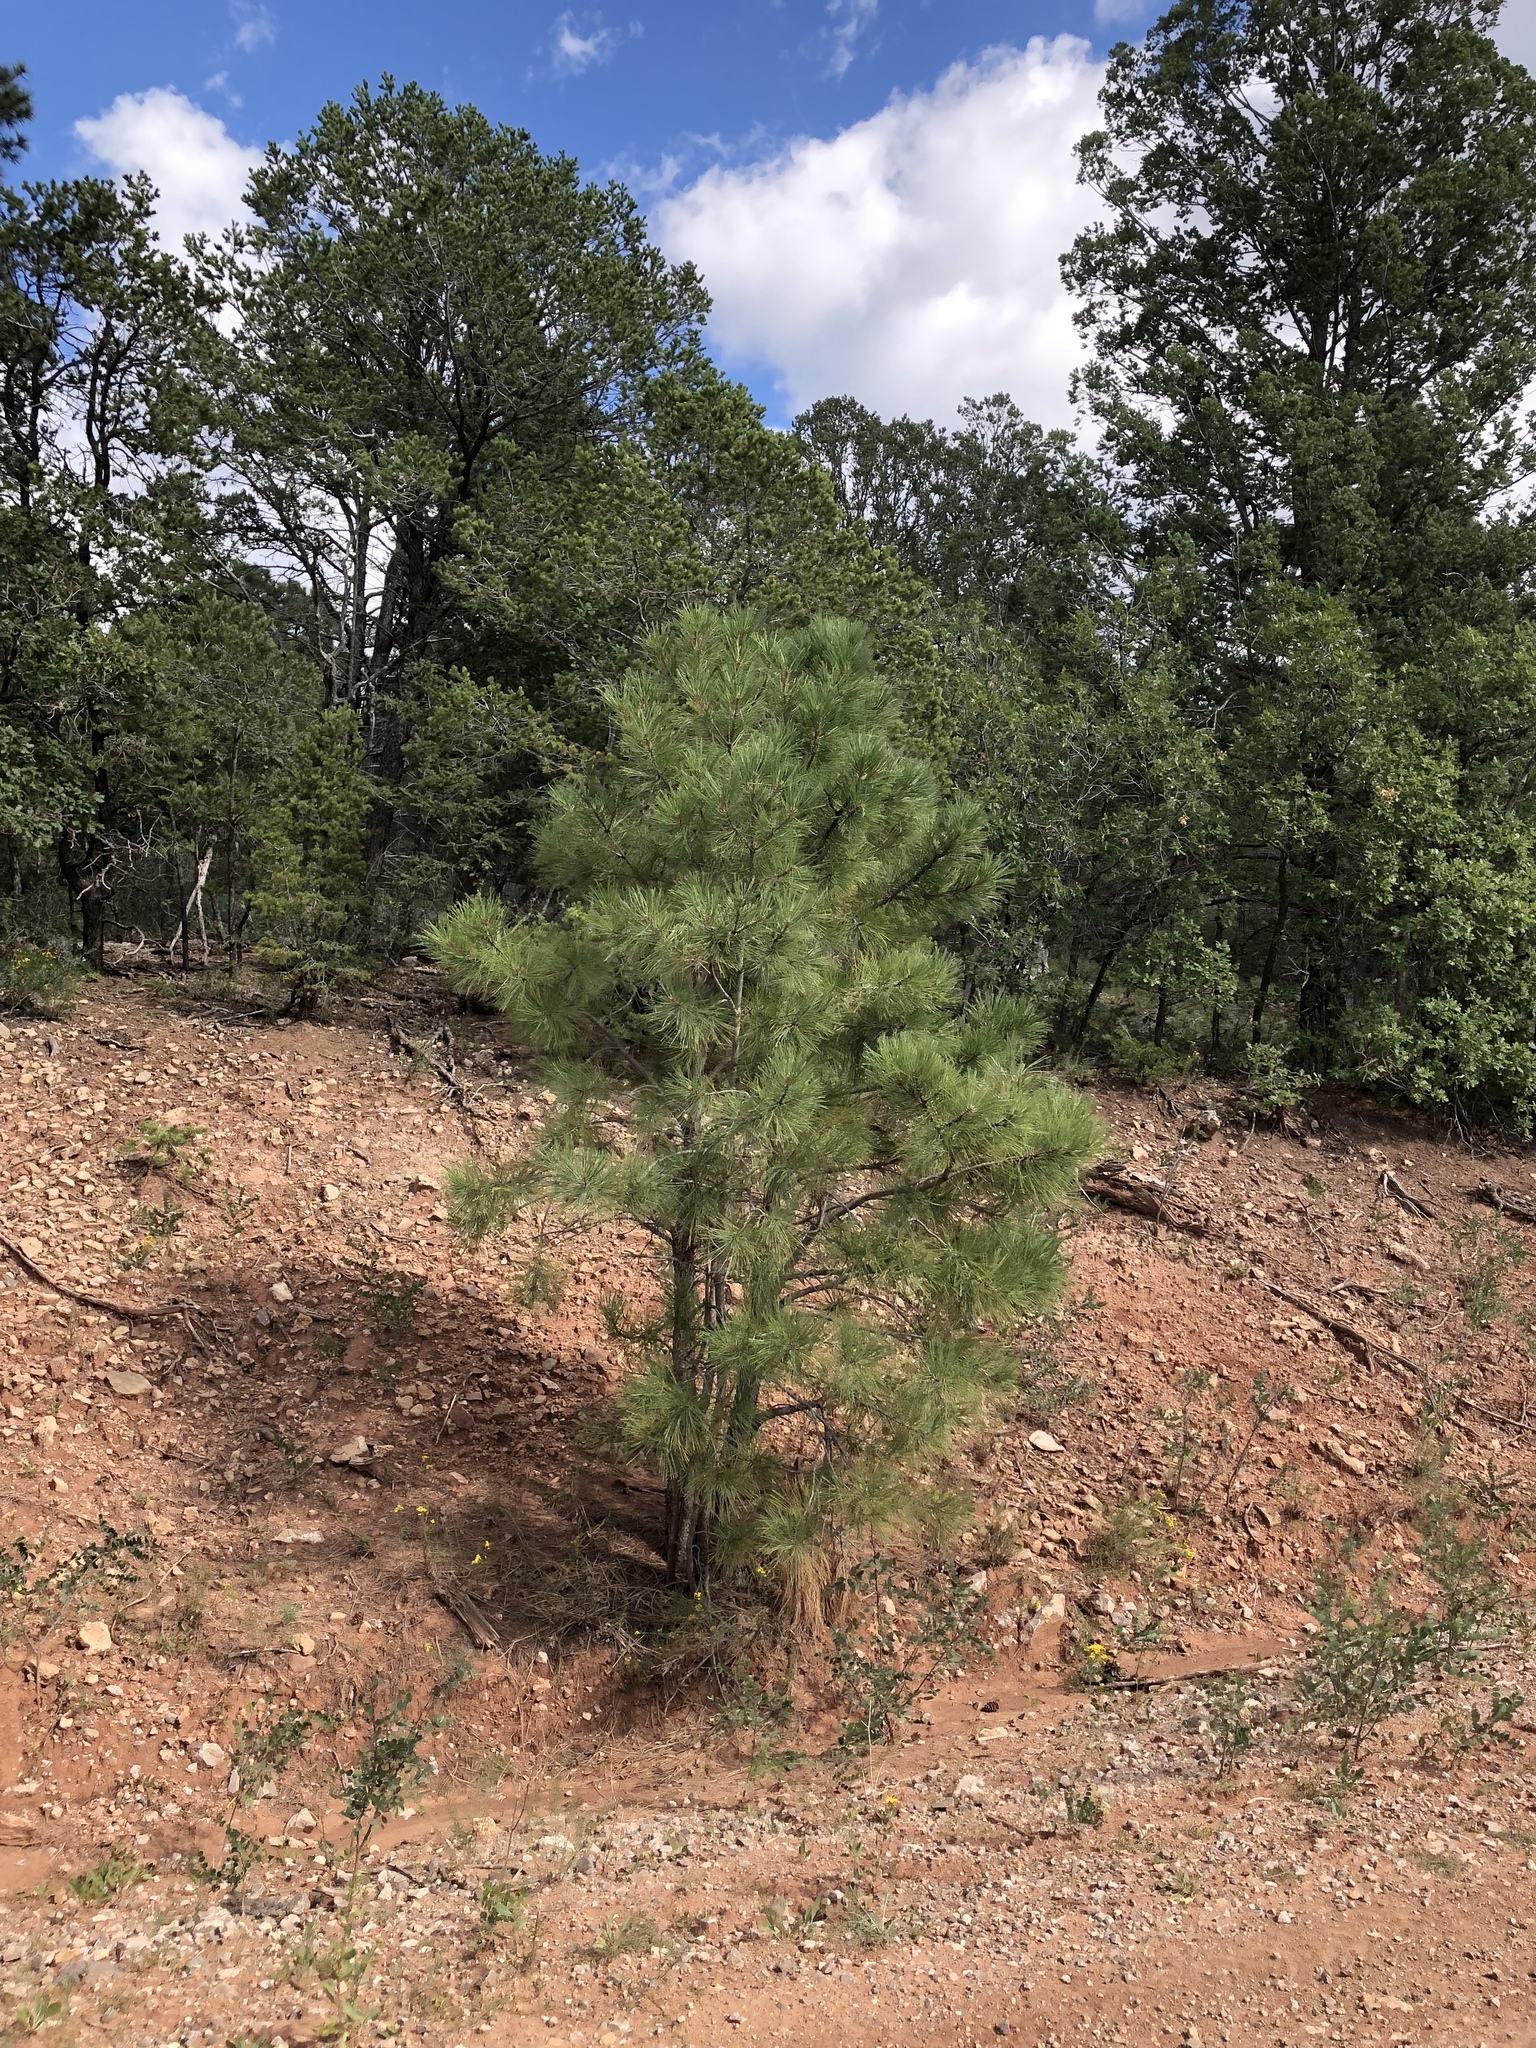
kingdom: Plantae
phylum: Tracheophyta
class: Pinopsida
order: Pinales
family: Pinaceae
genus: Pinus
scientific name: Pinus ponderosa
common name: Western yellow-pine
